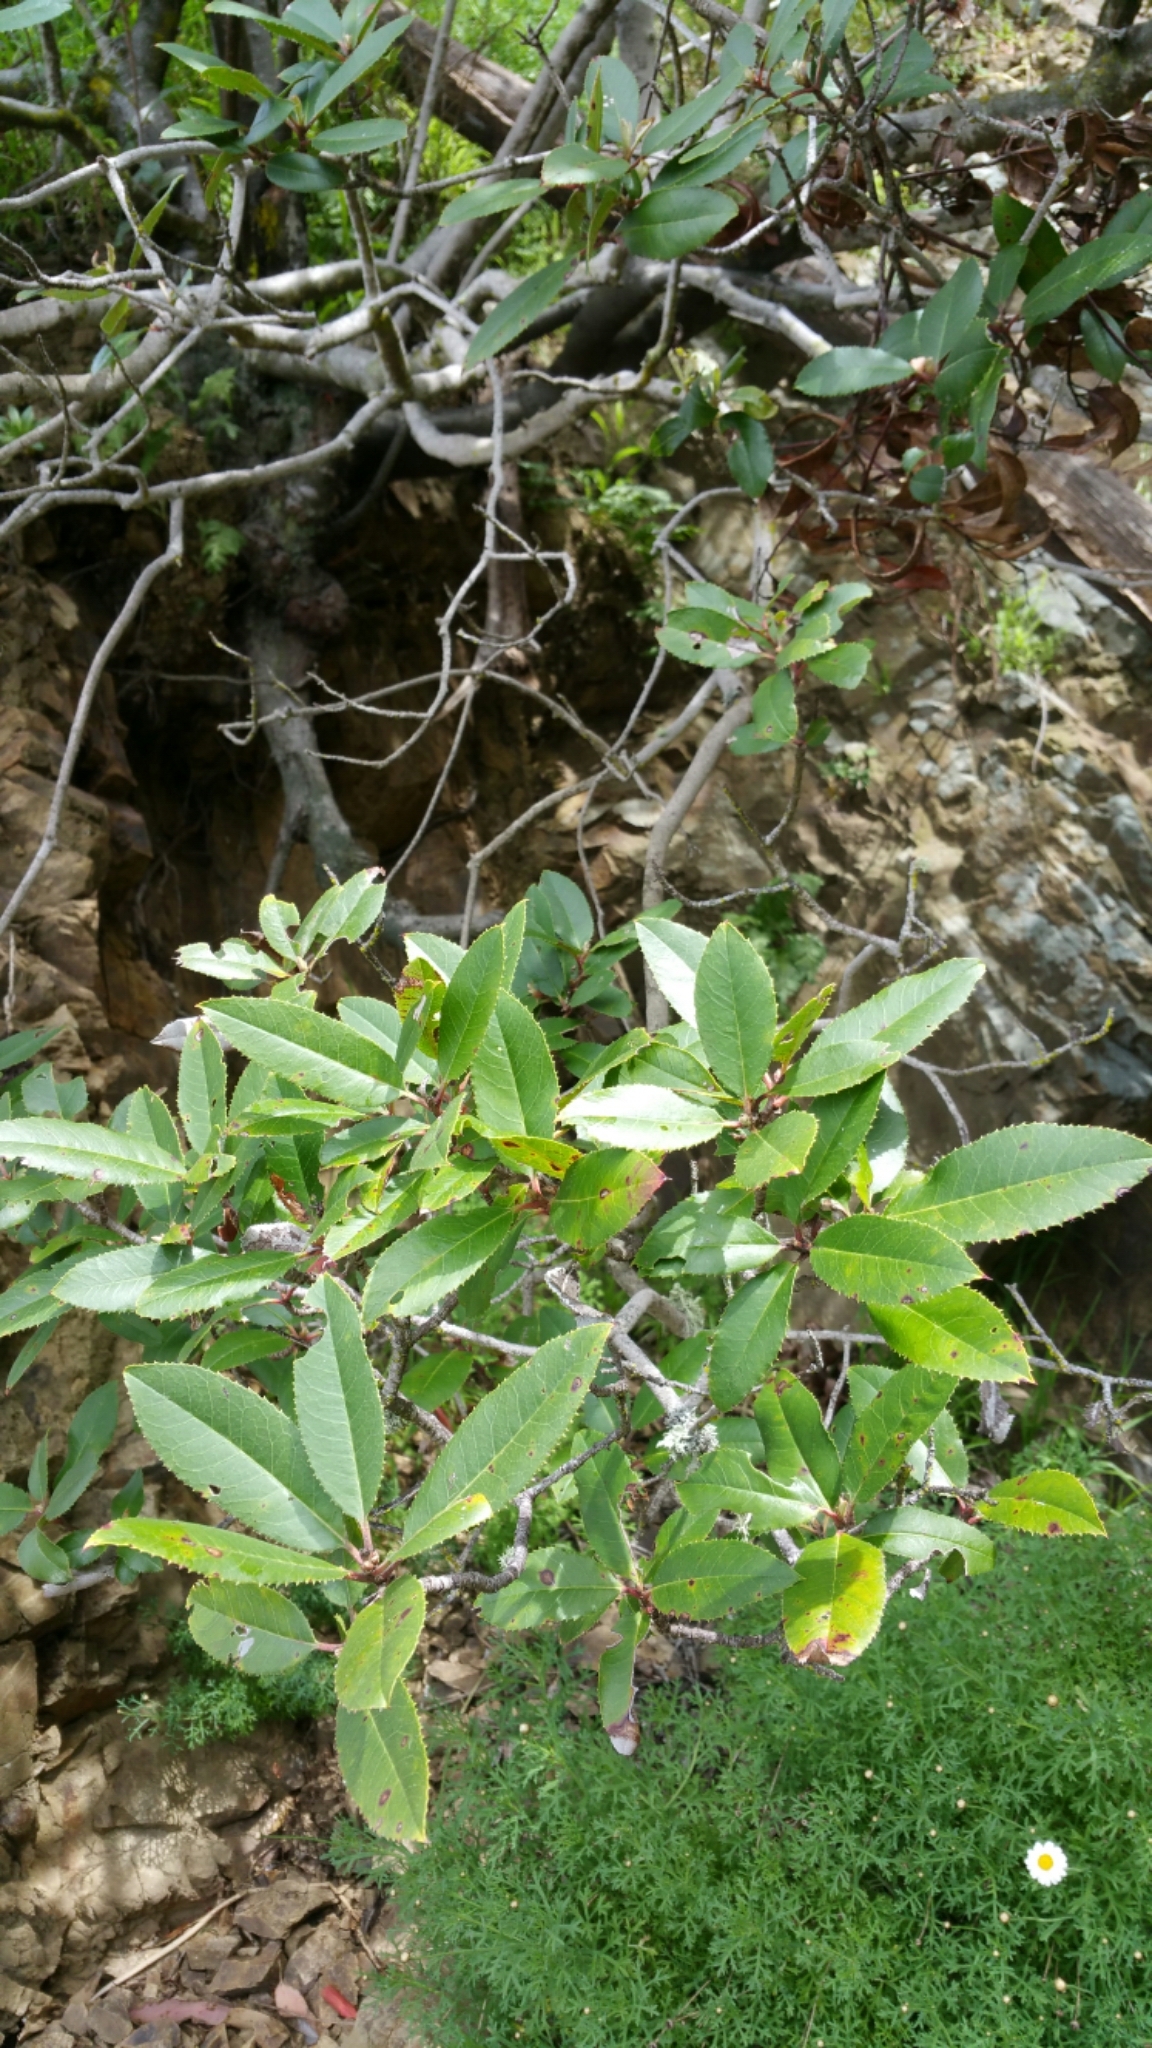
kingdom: Plantae
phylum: Tracheophyta
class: Magnoliopsida
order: Rosales
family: Rosaceae
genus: Heteromeles
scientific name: Heteromeles arbutifolia
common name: California-holly
